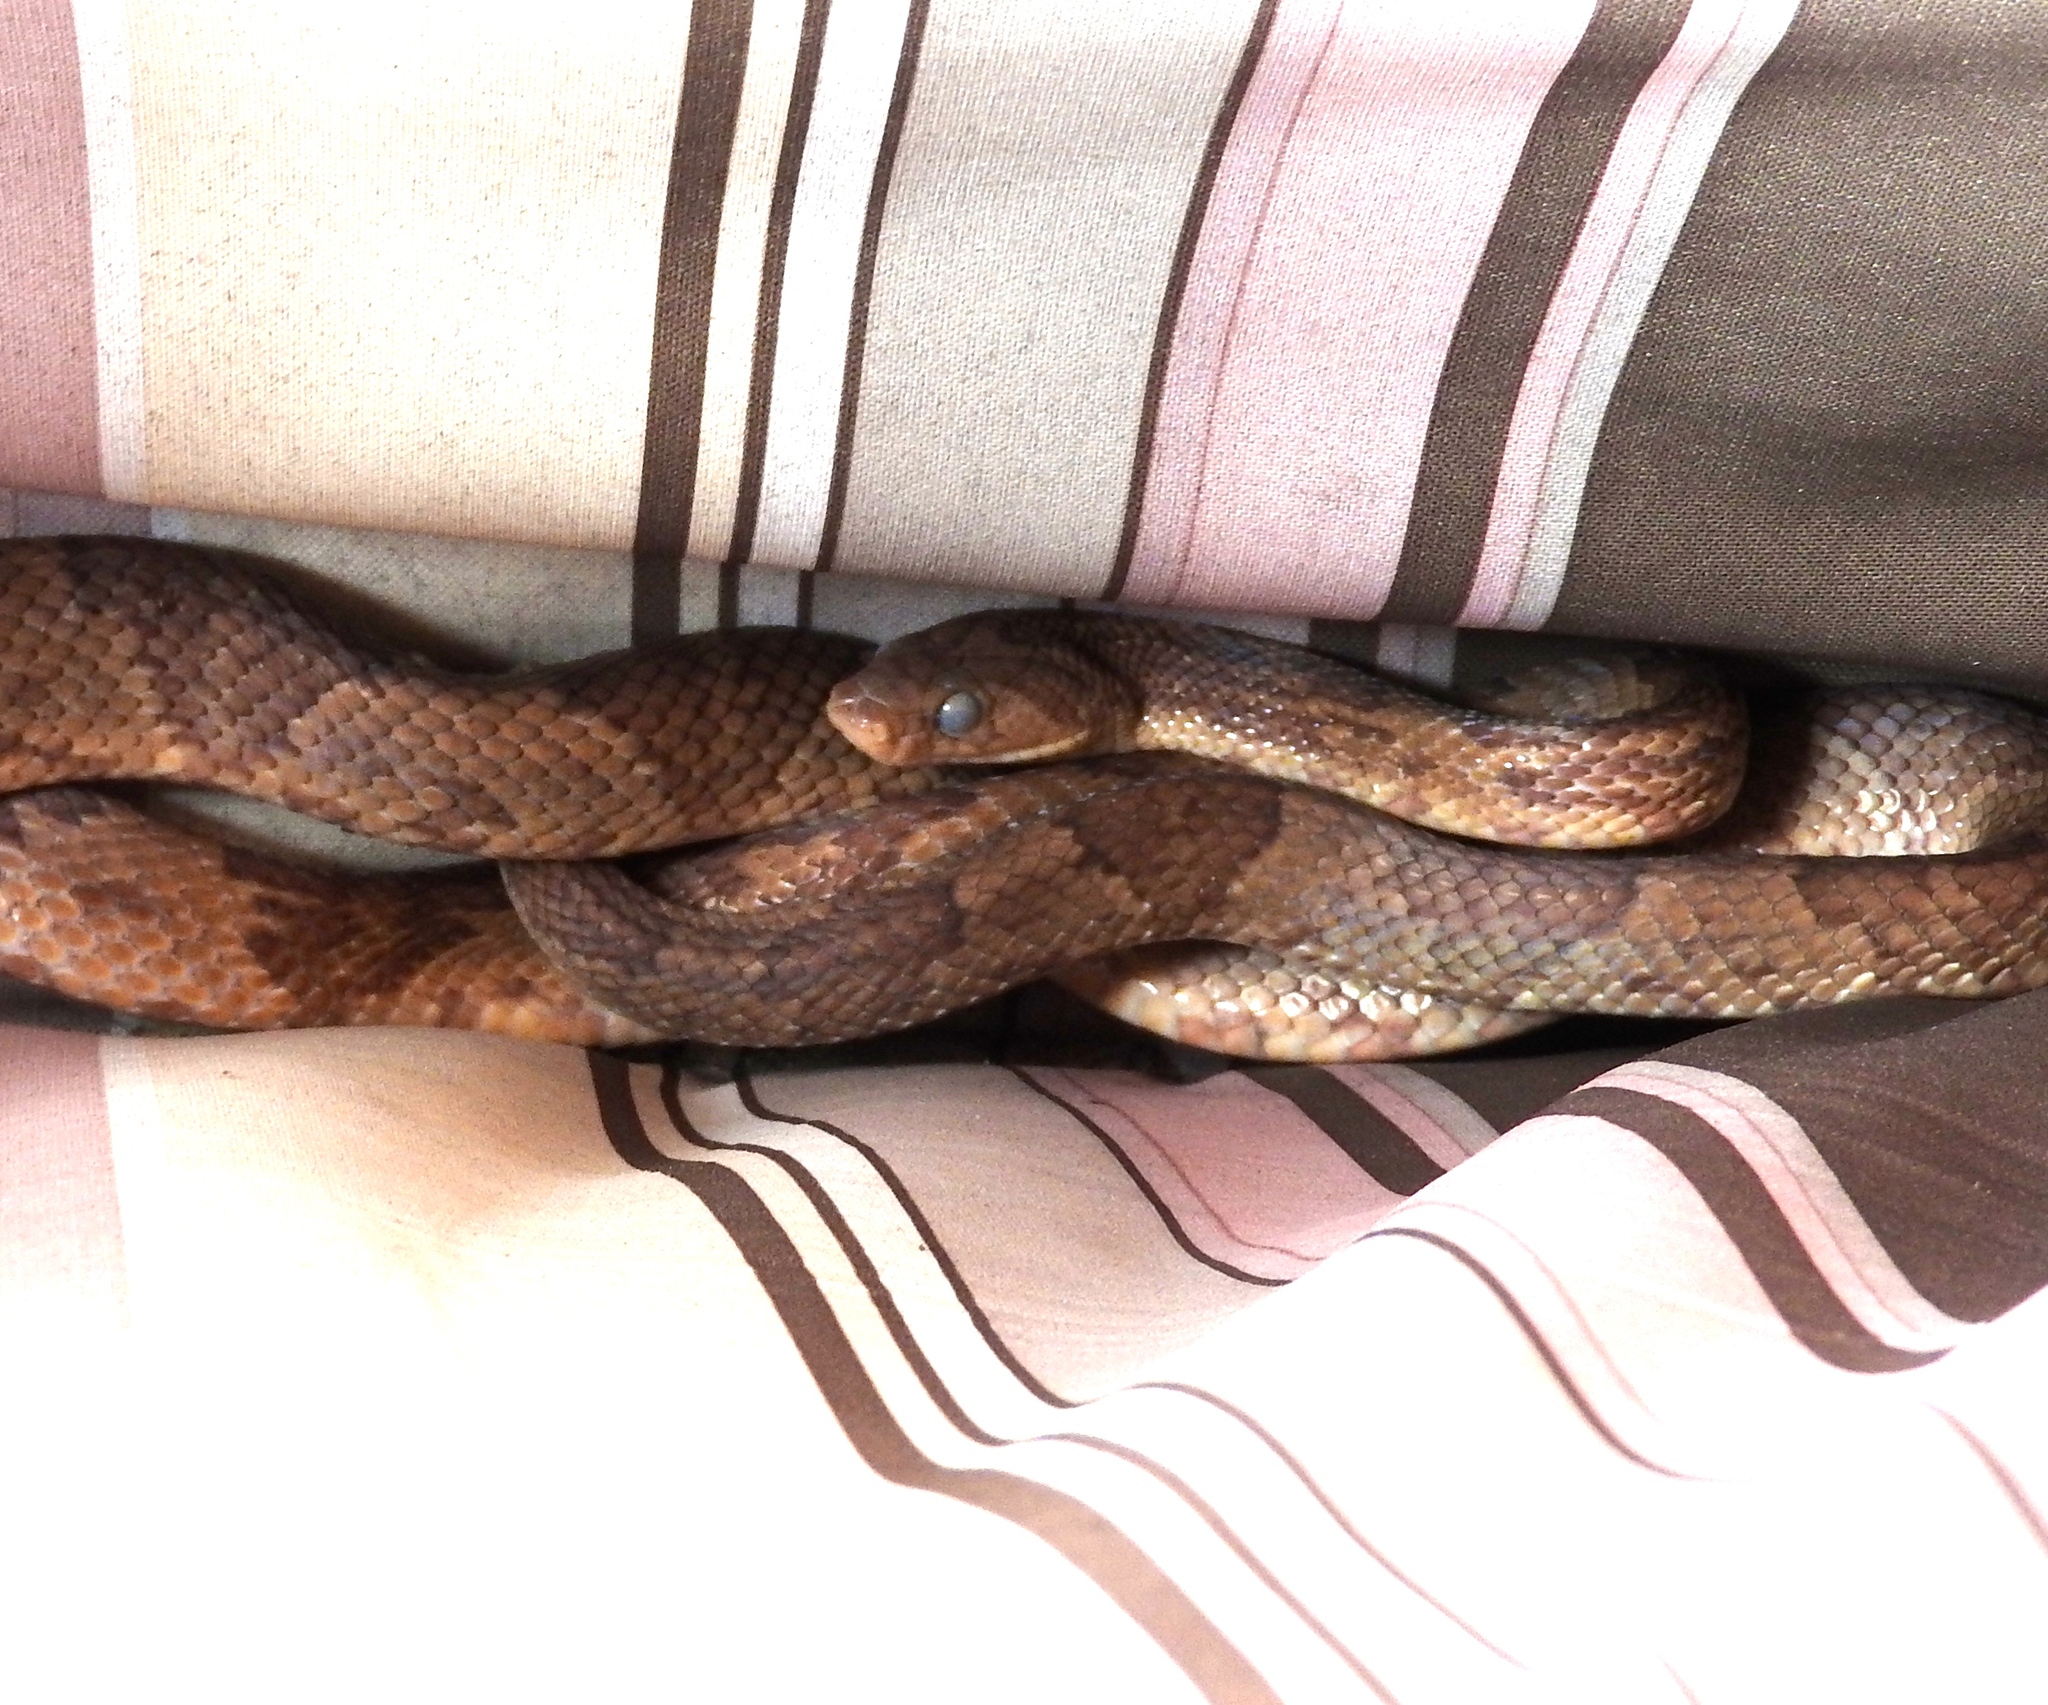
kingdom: Animalia
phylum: Chordata
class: Squamata
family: Colubridae
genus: Trimorphodon
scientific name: Trimorphodon paucimaculatus
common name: Sinaloan lyresnake
